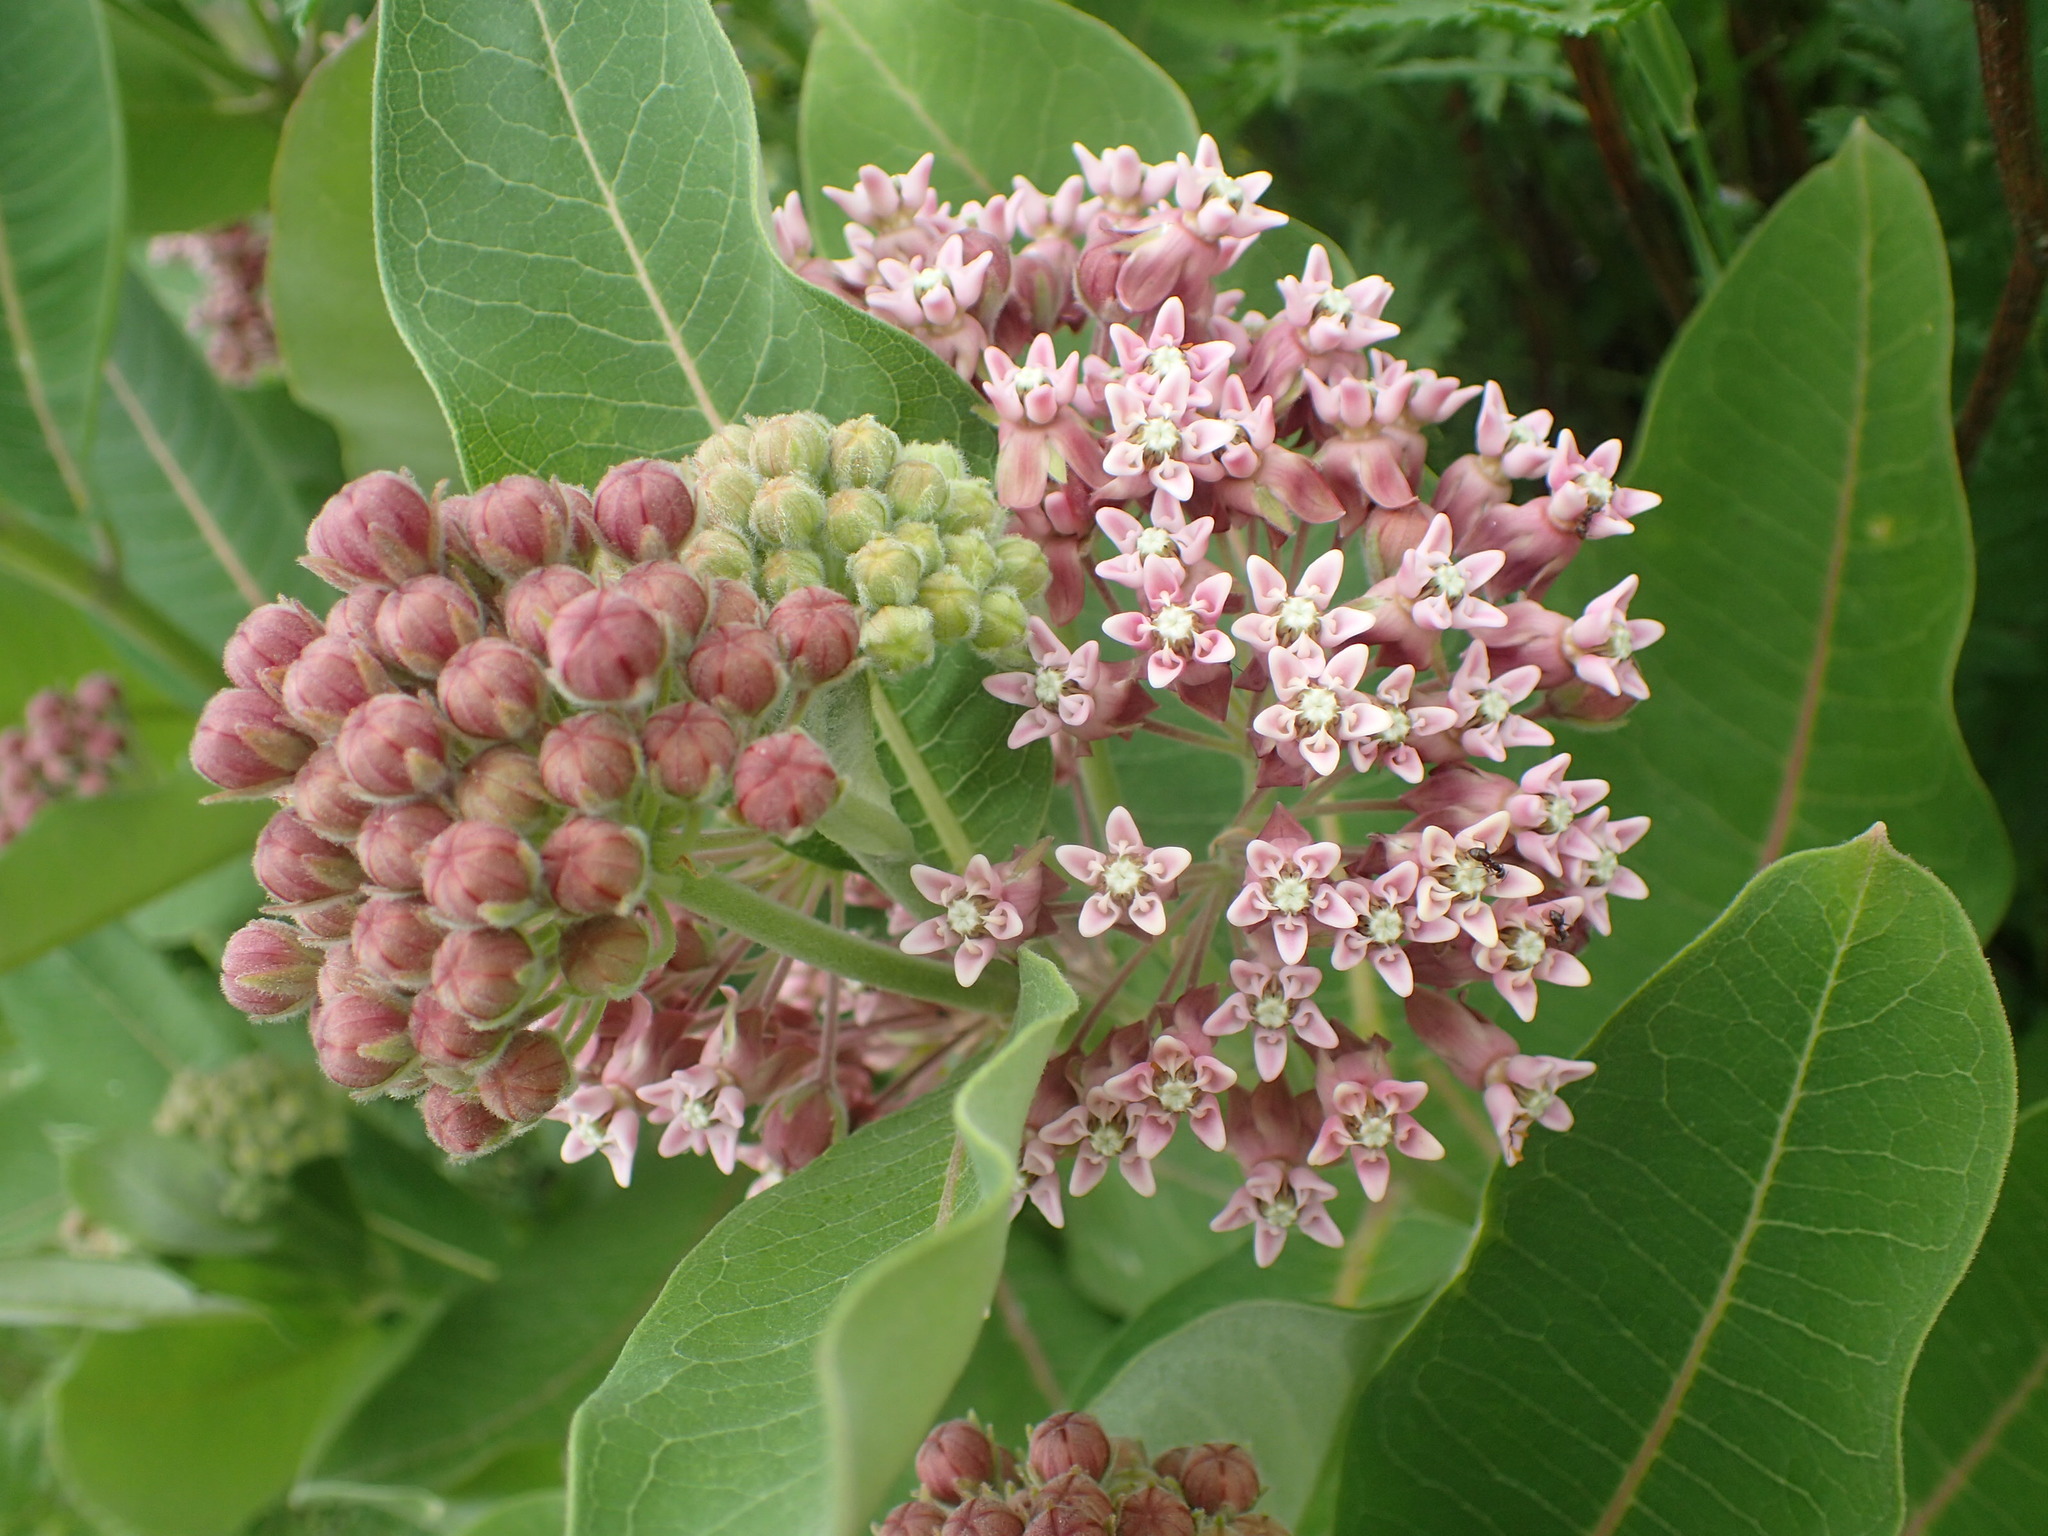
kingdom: Plantae
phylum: Tracheophyta
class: Magnoliopsida
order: Gentianales
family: Apocynaceae
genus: Asclepias
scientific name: Asclepias syriaca
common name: Common milkweed
